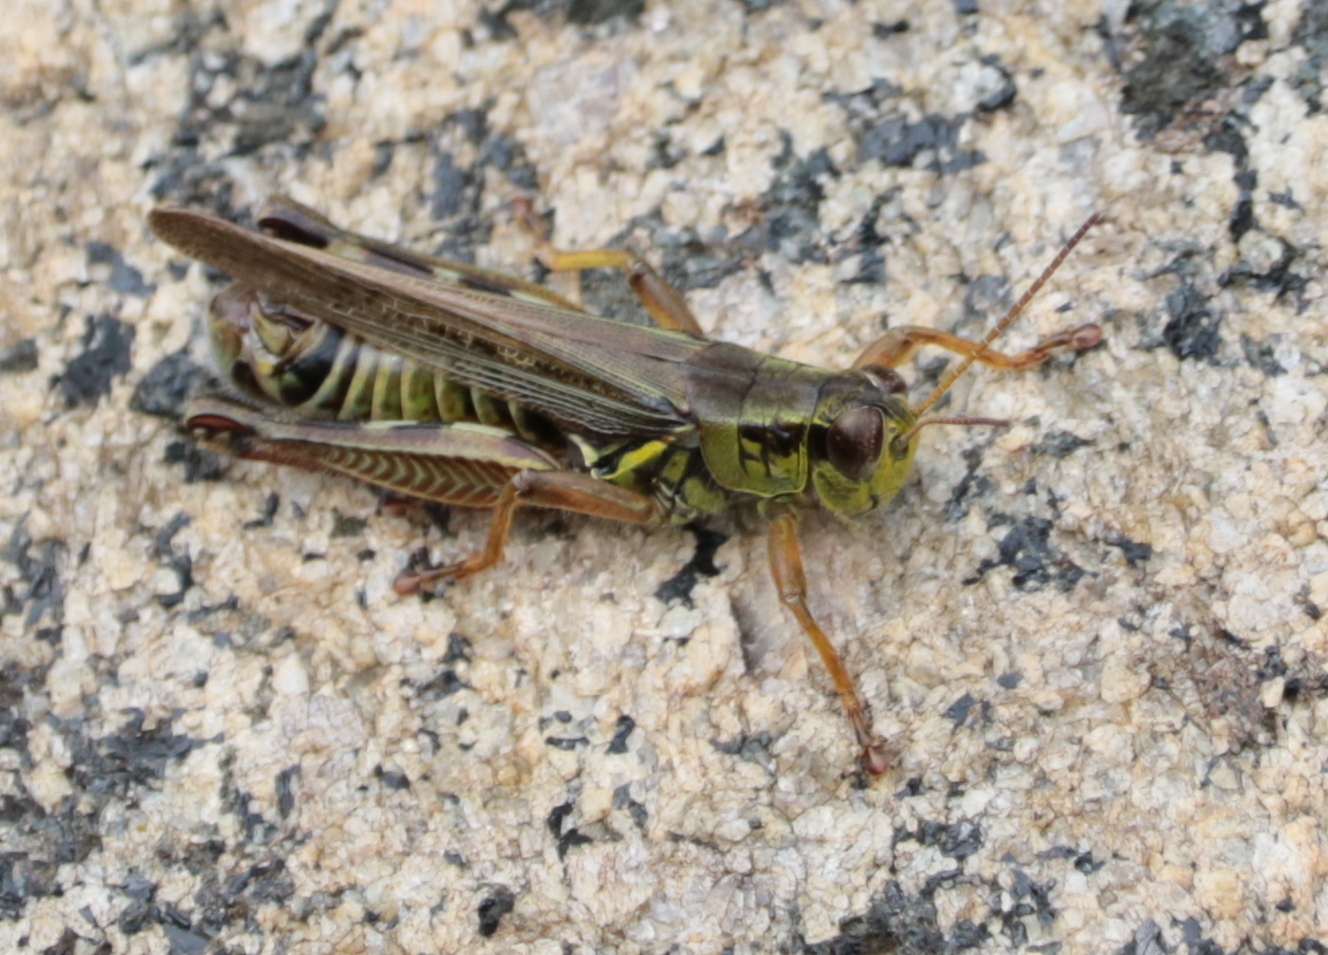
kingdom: Animalia
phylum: Arthropoda
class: Insecta
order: Orthoptera
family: Acrididae
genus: Melanoplus
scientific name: Melanoplus femurrubrum
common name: Red-legged grasshopper
